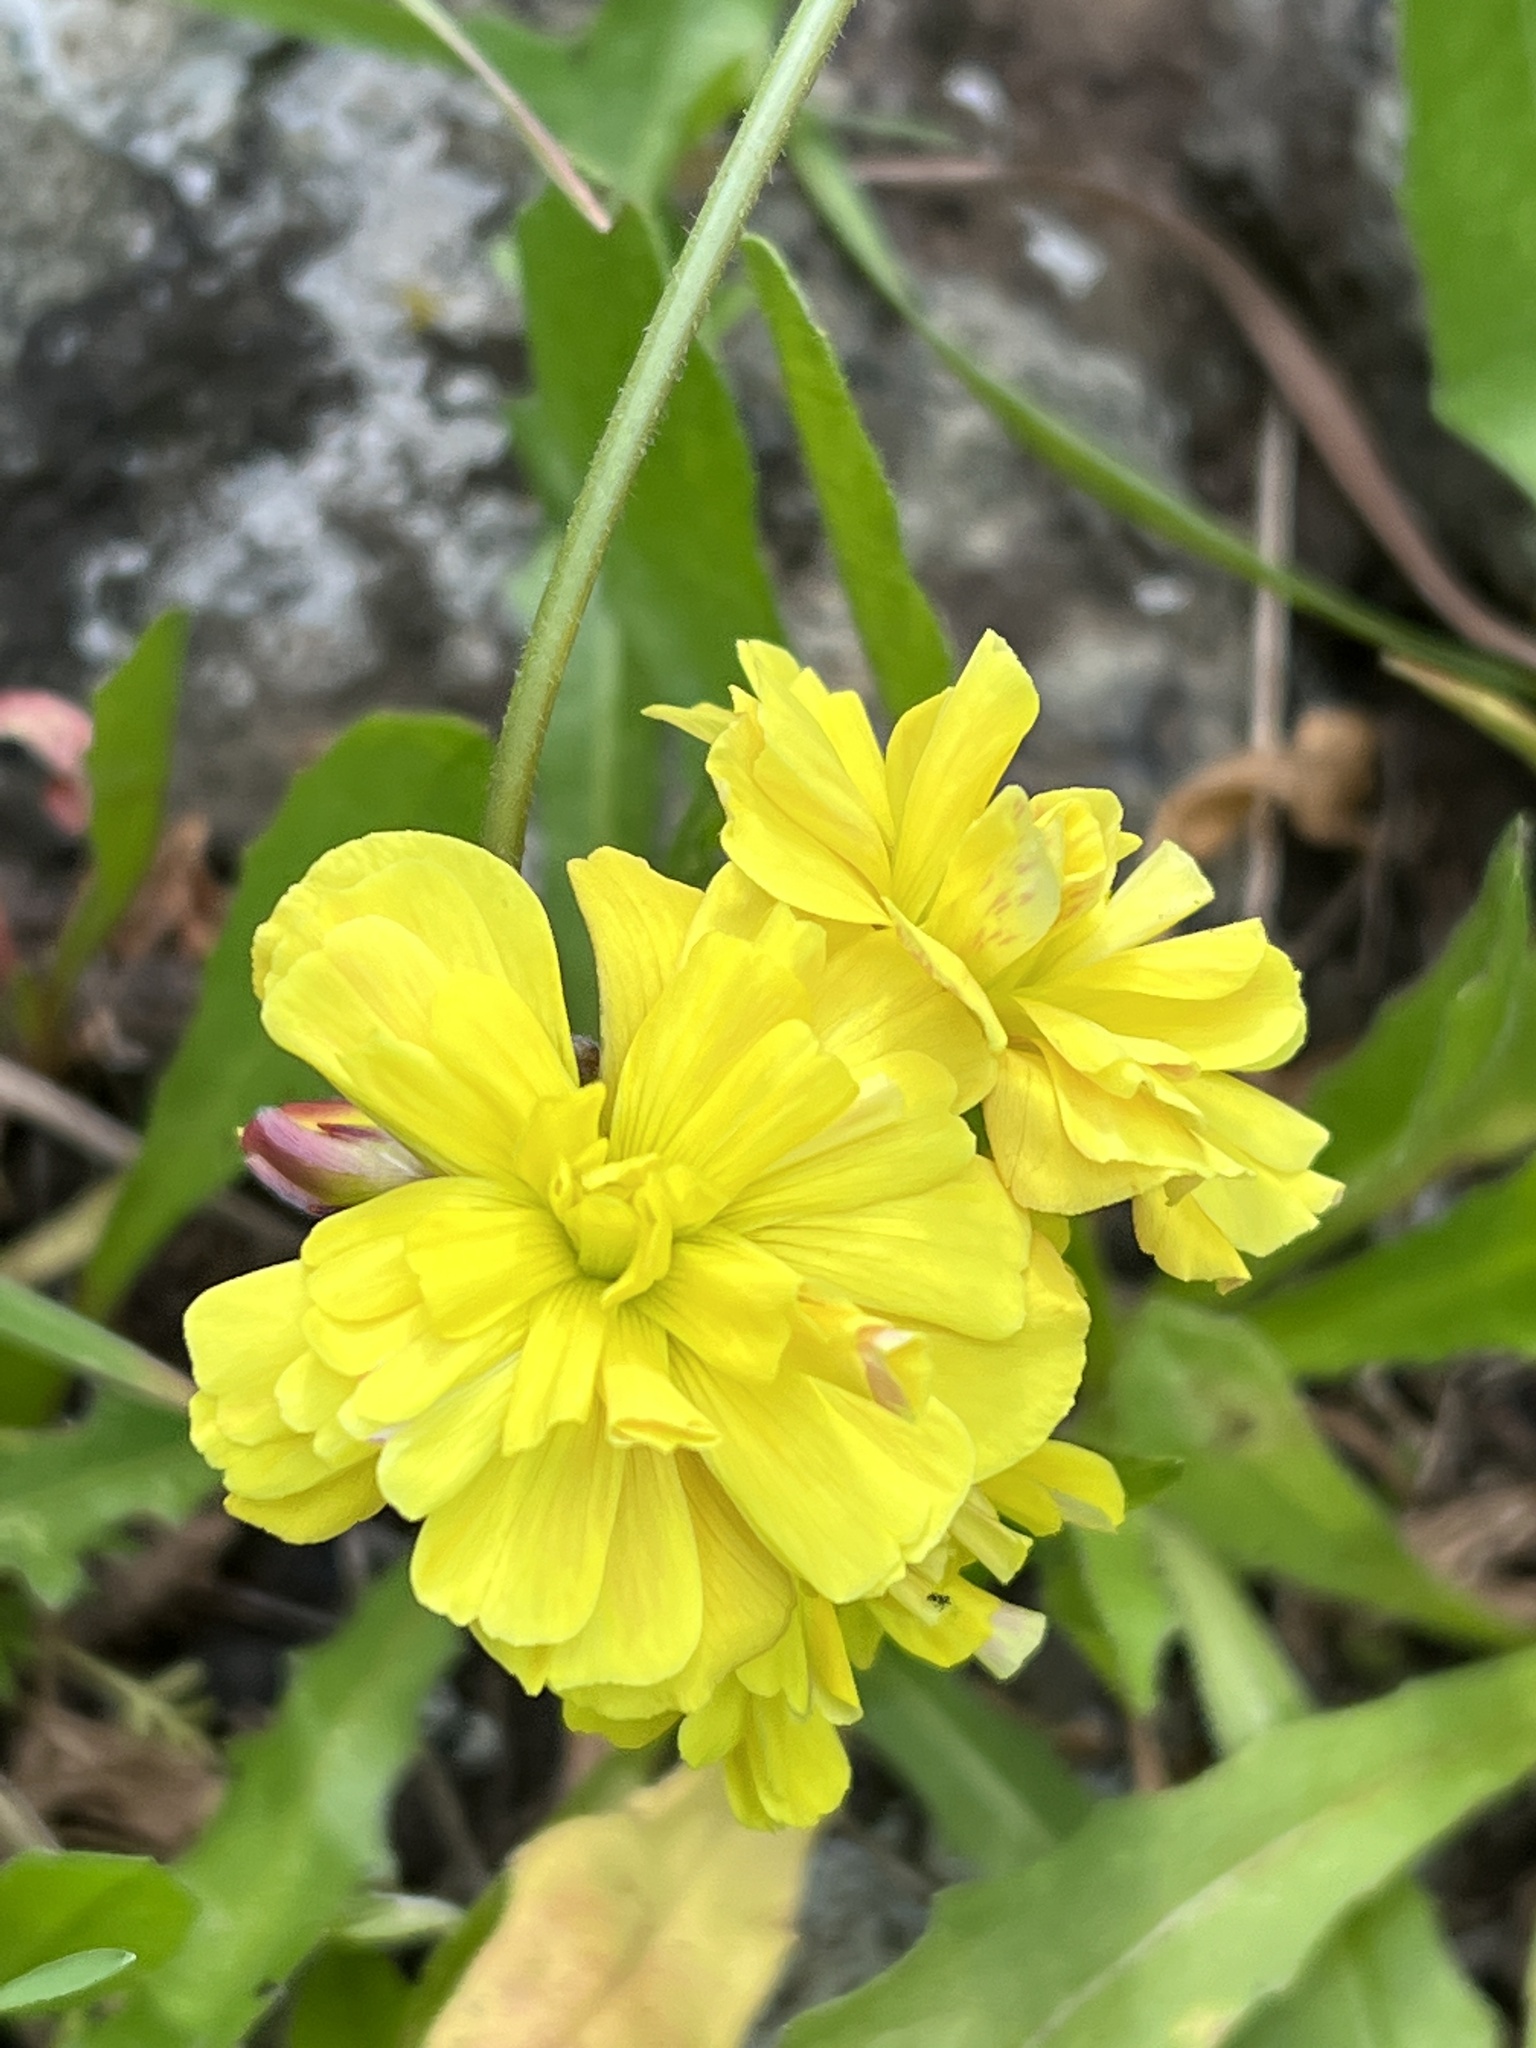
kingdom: Plantae
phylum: Tracheophyta
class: Magnoliopsida
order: Oxalidales
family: Oxalidaceae
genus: Oxalis
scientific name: Oxalis pes-caprae
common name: Bermuda-buttercup
